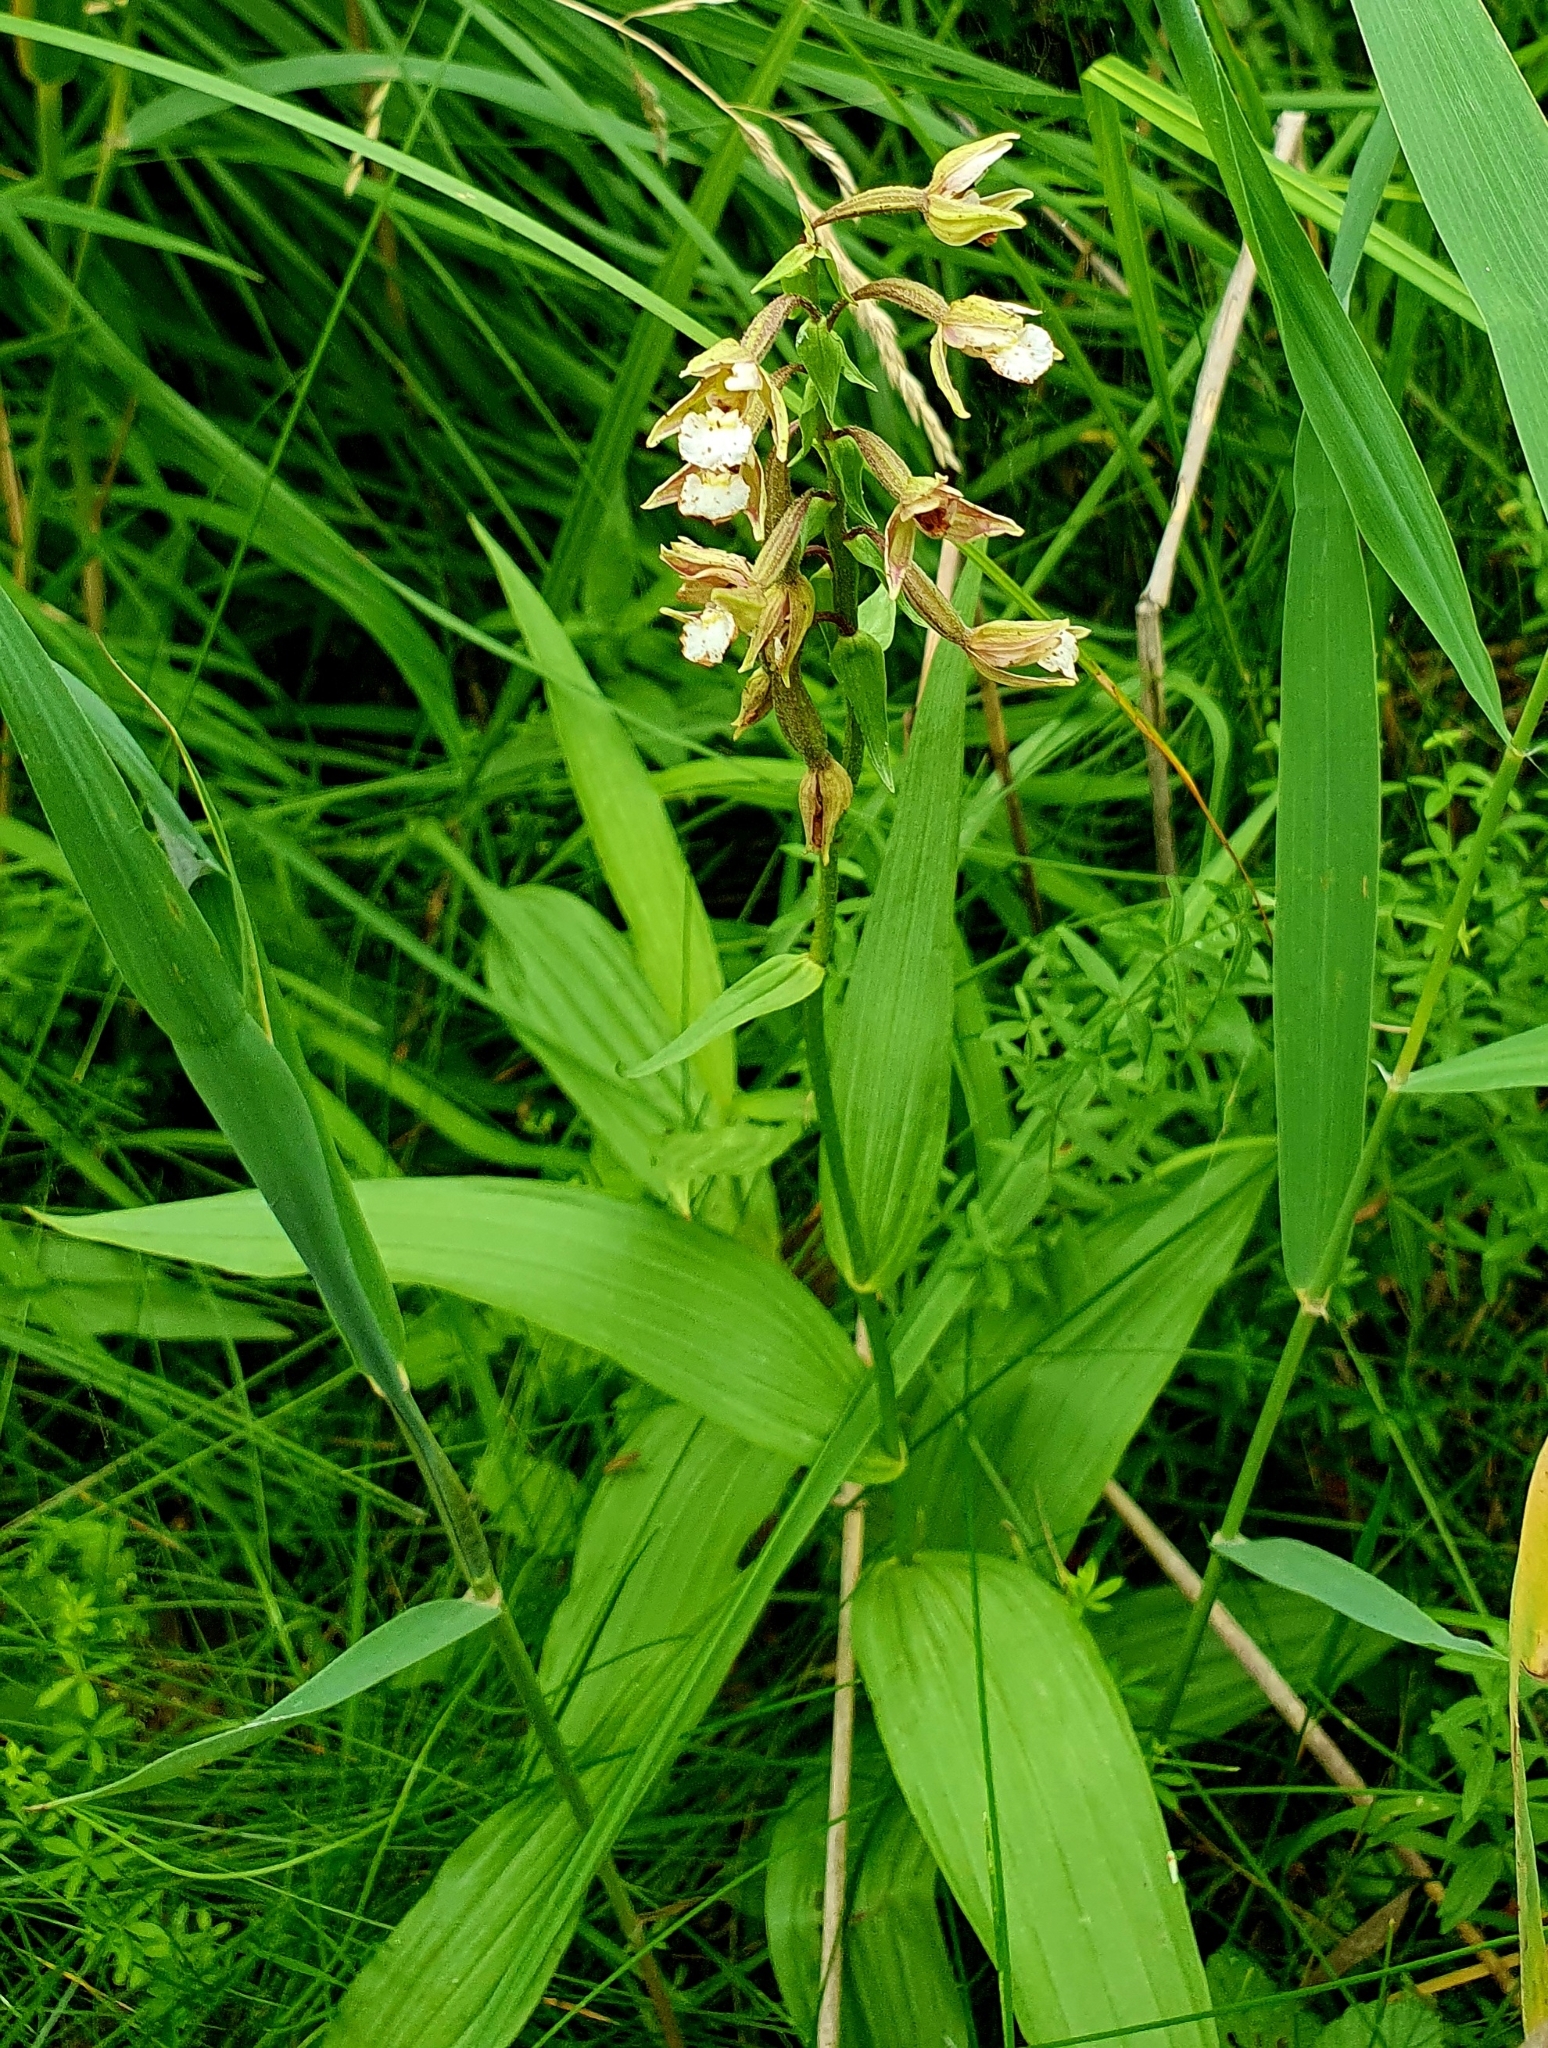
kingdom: Plantae
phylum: Tracheophyta
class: Liliopsida
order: Asparagales
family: Orchidaceae
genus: Epipactis
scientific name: Epipactis palustris
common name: Marsh helleborine
